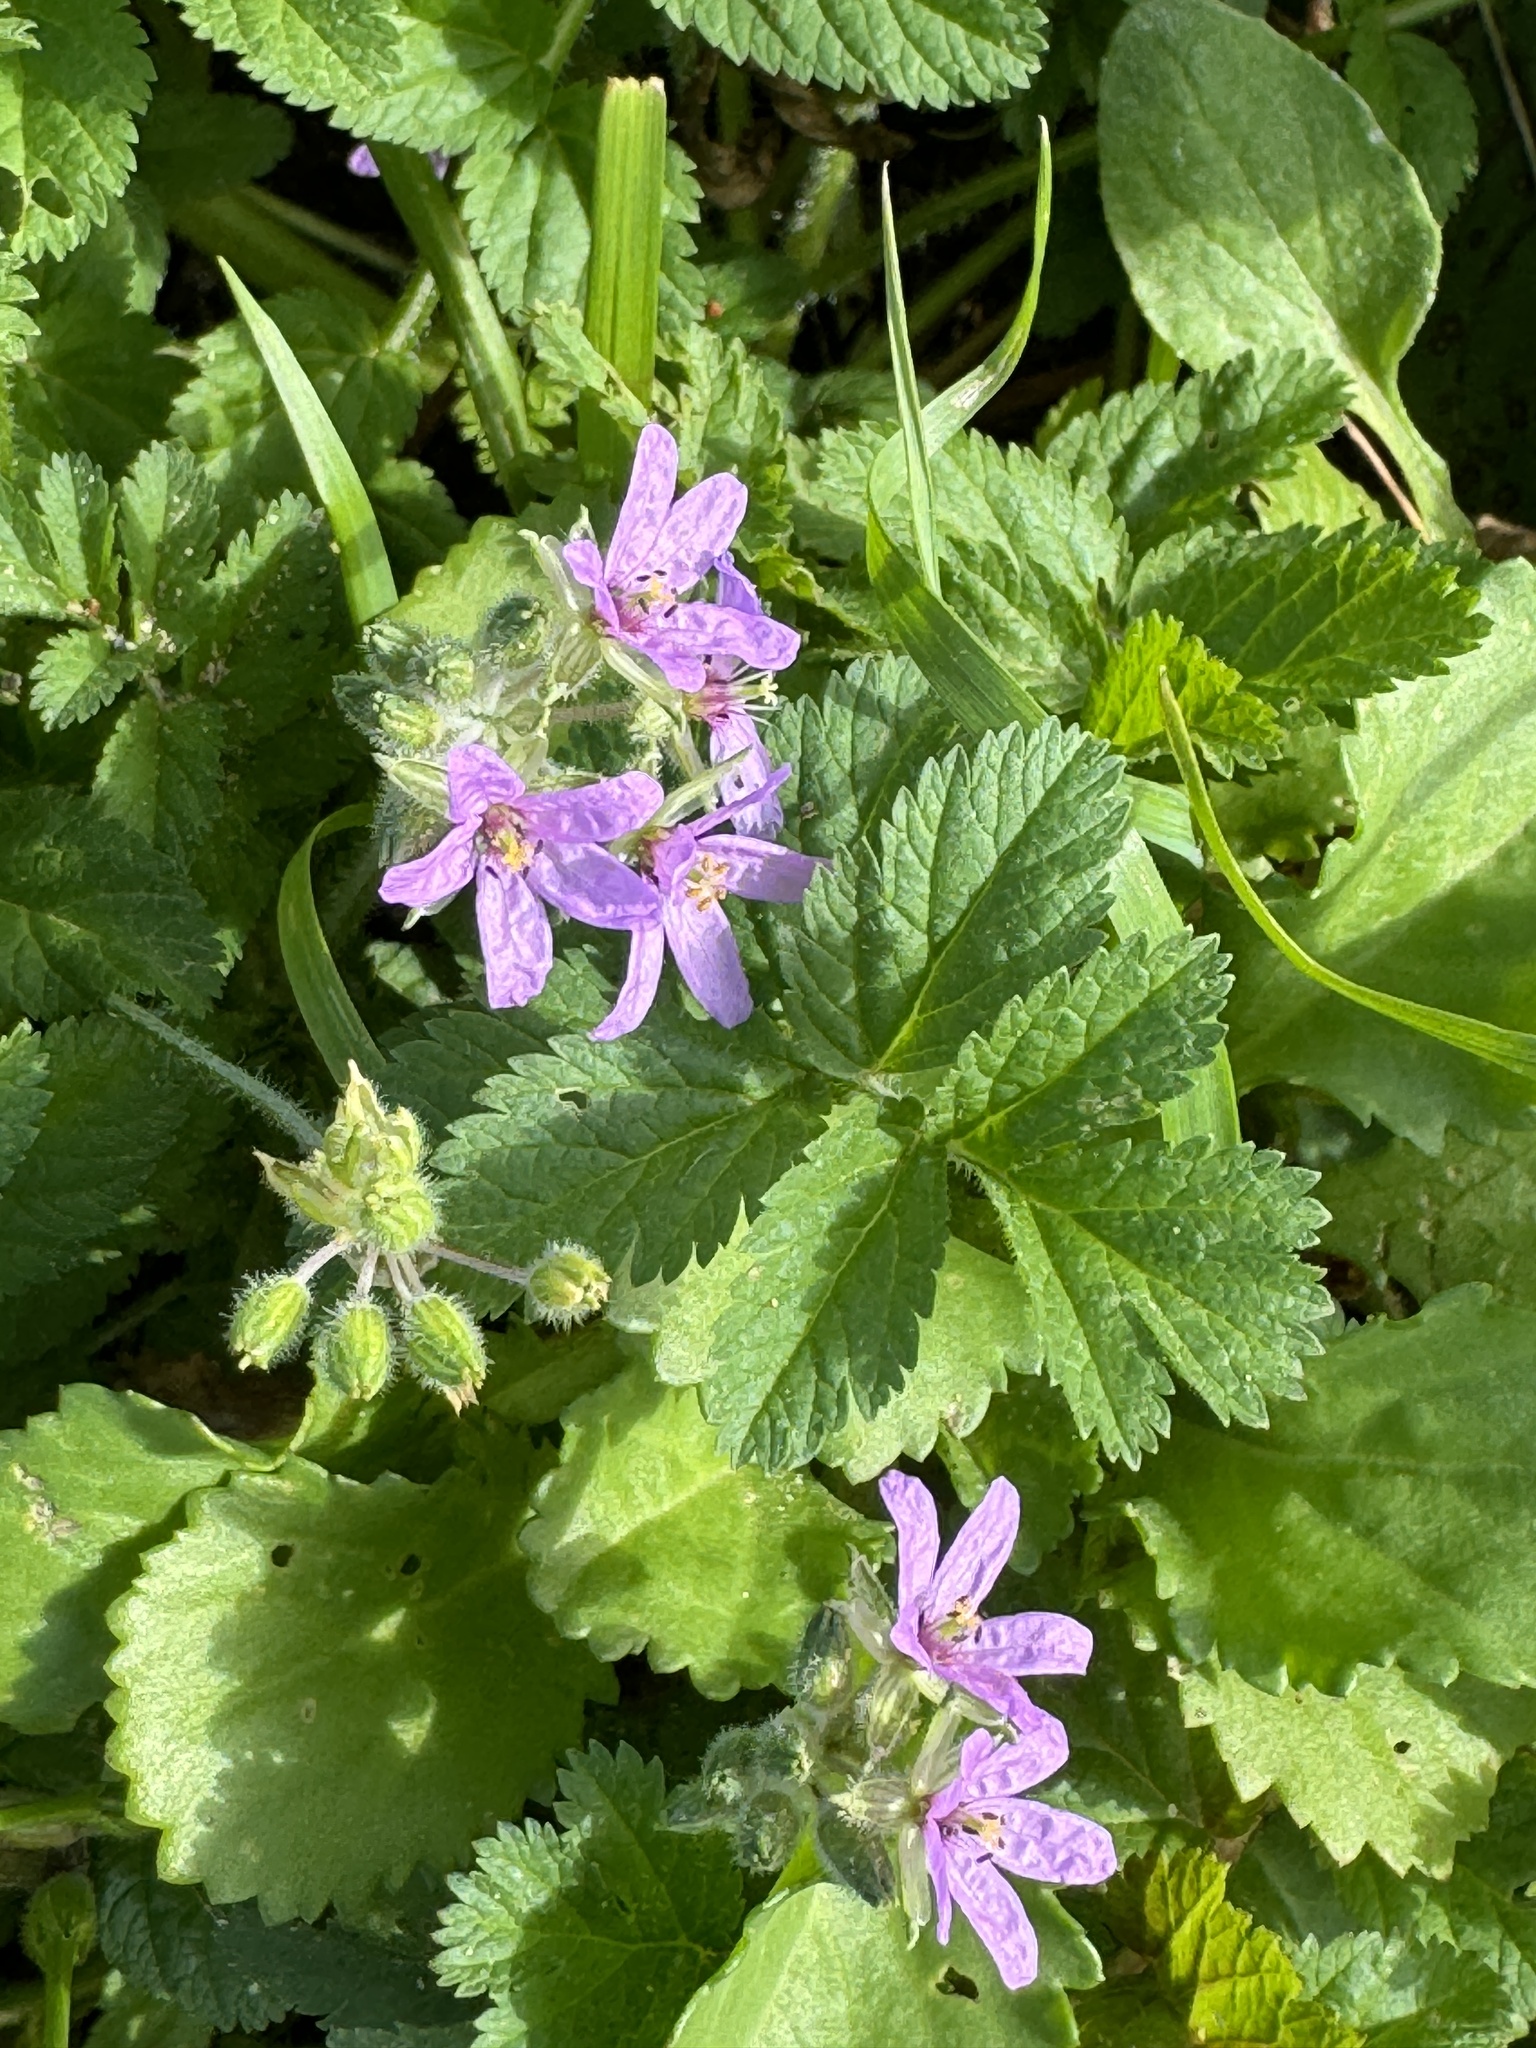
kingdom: Plantae
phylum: Tracheophyta
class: Magnoliopsida
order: Geraniales
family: Geraniaceae
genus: Erodium
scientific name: Erodium moschatum
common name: Musk stork's-bill
